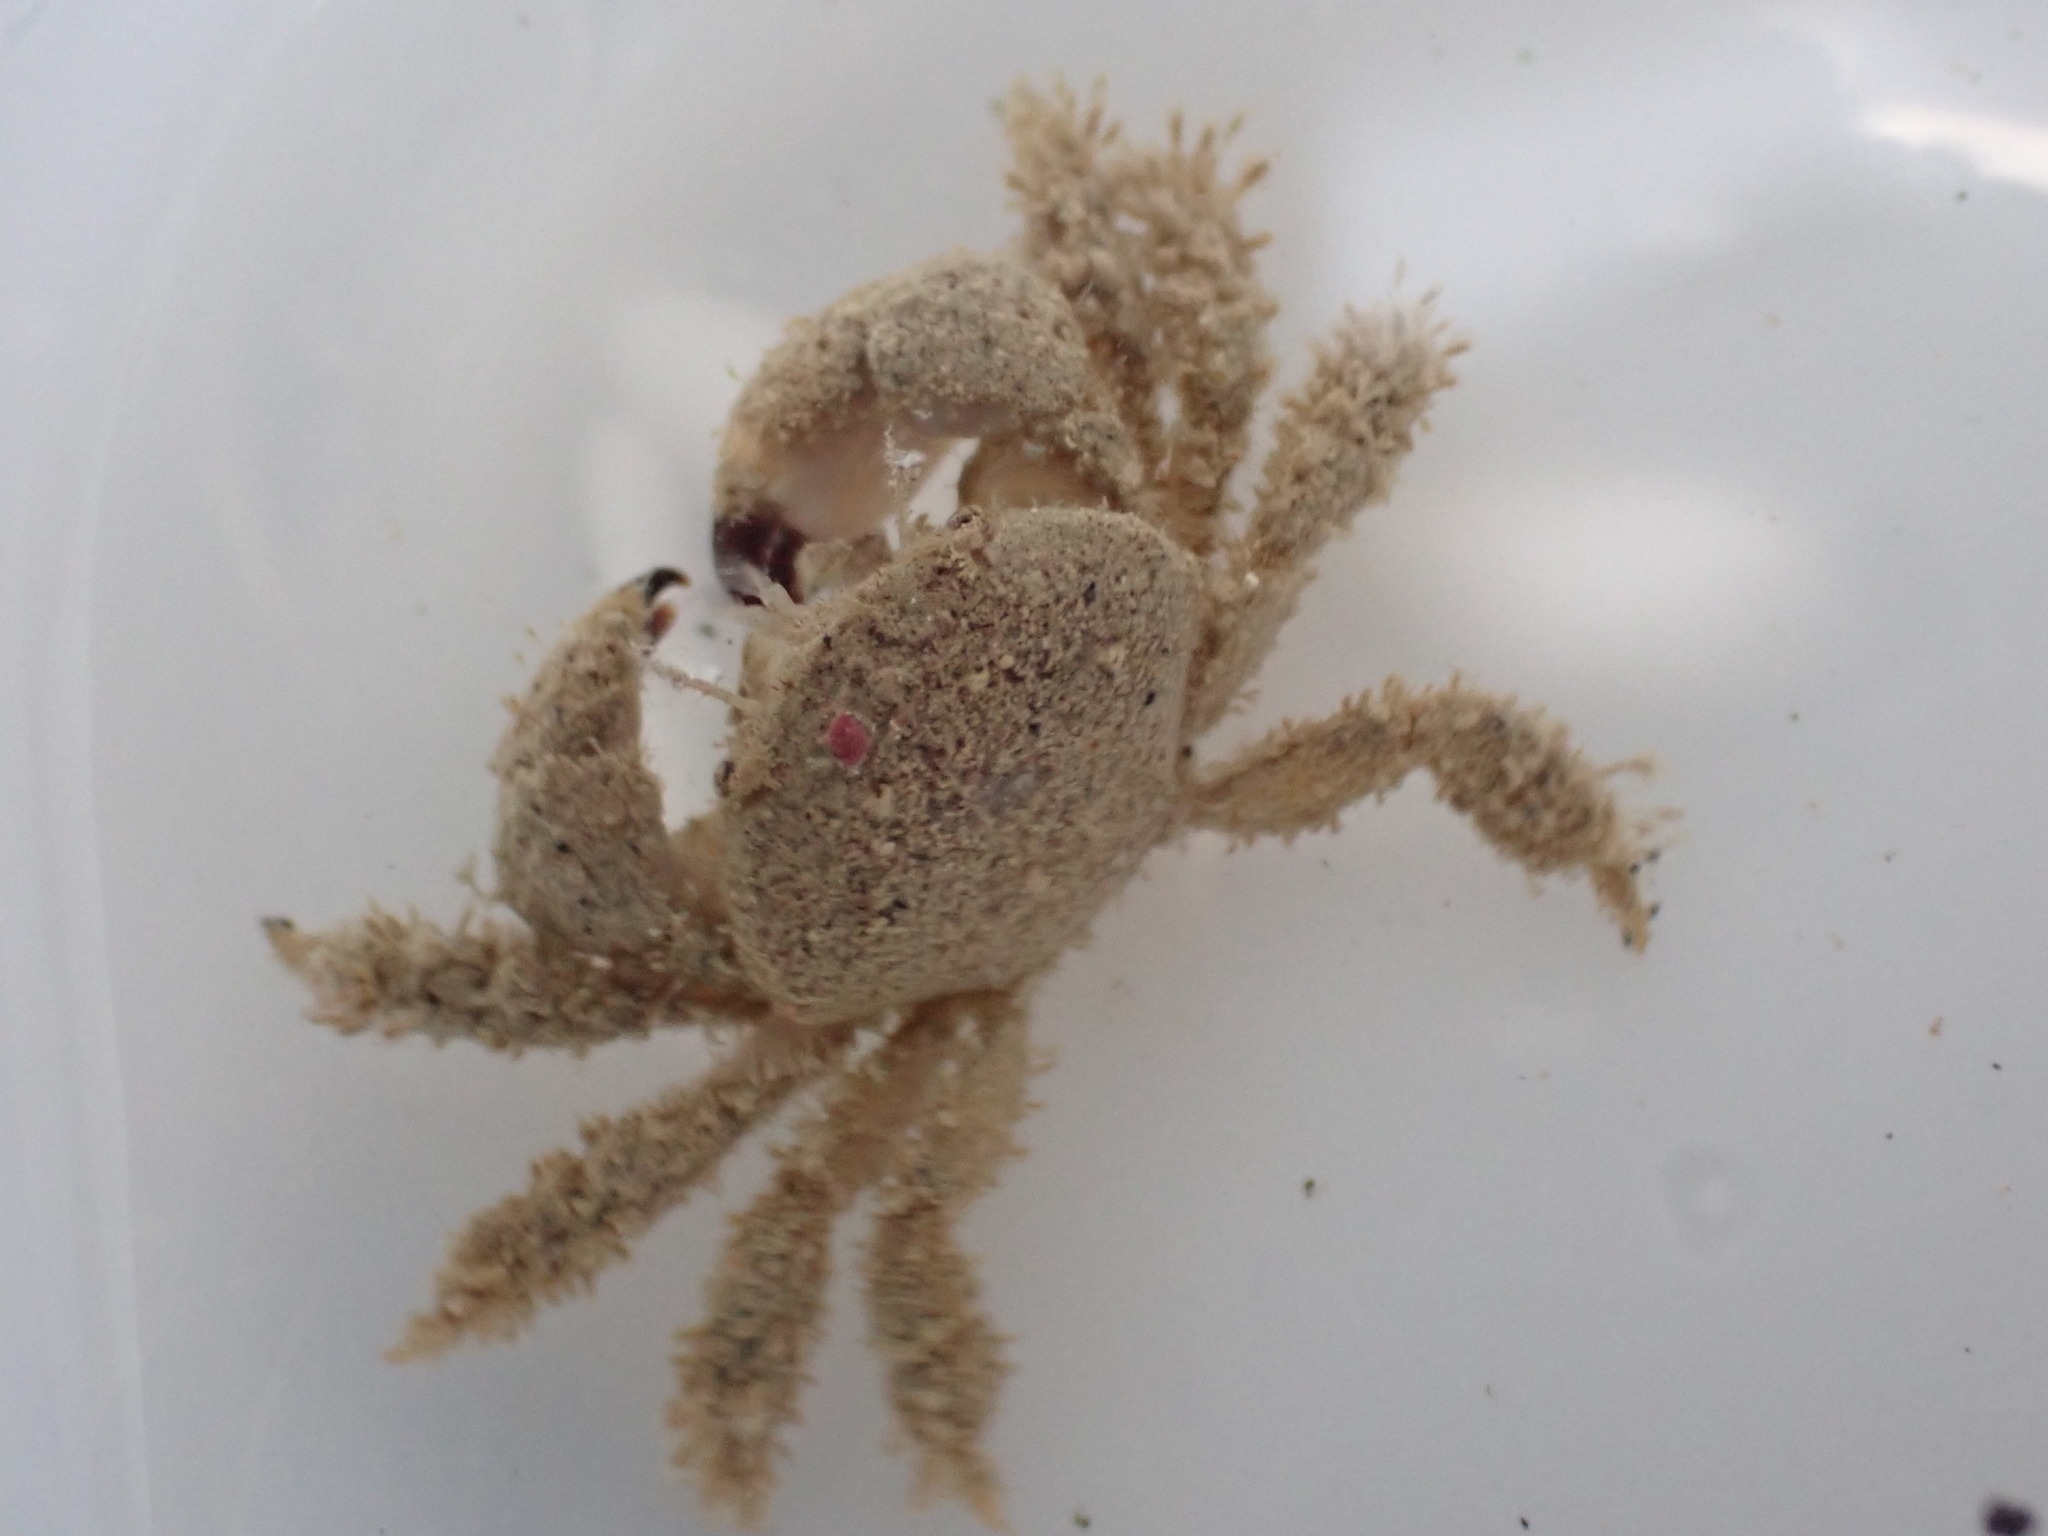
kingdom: Animalia
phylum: Arthropoda
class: Malacostraca
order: Decapoda
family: Pilumnidae
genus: Pilumnus
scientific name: Pilumnus lumpinus
